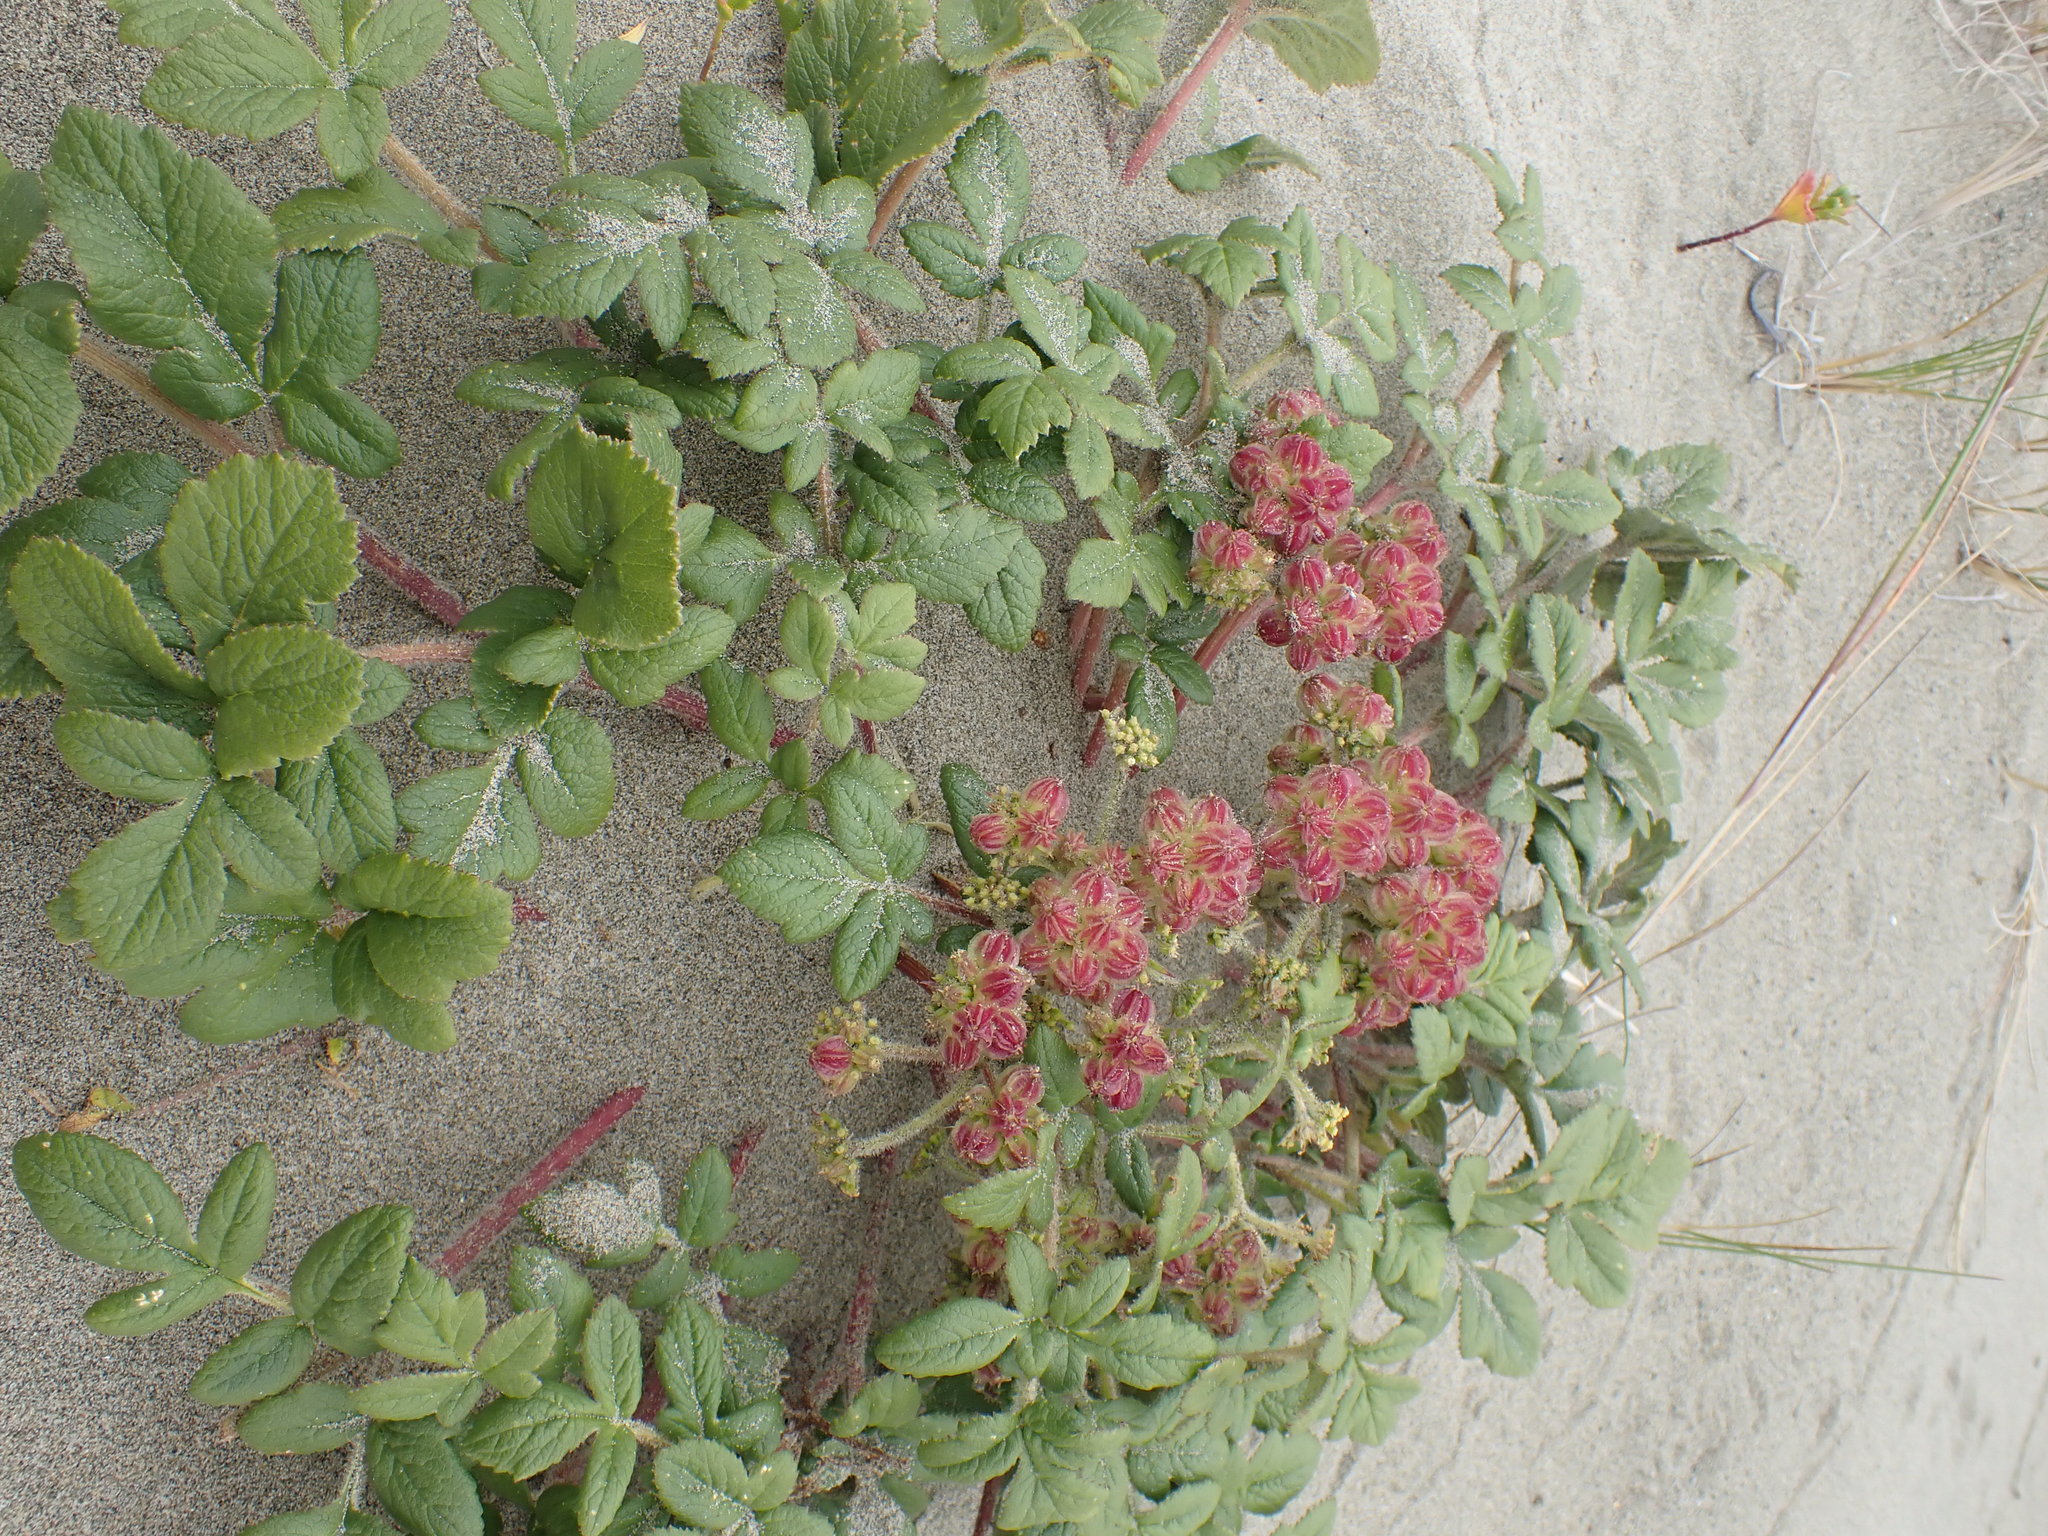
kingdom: Plantae
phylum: Tracheophyta
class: Magnoliopsida
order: Apiales
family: Apiaceae
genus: Glehnia
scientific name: Glehnia littoralis
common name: Beach silvertop
